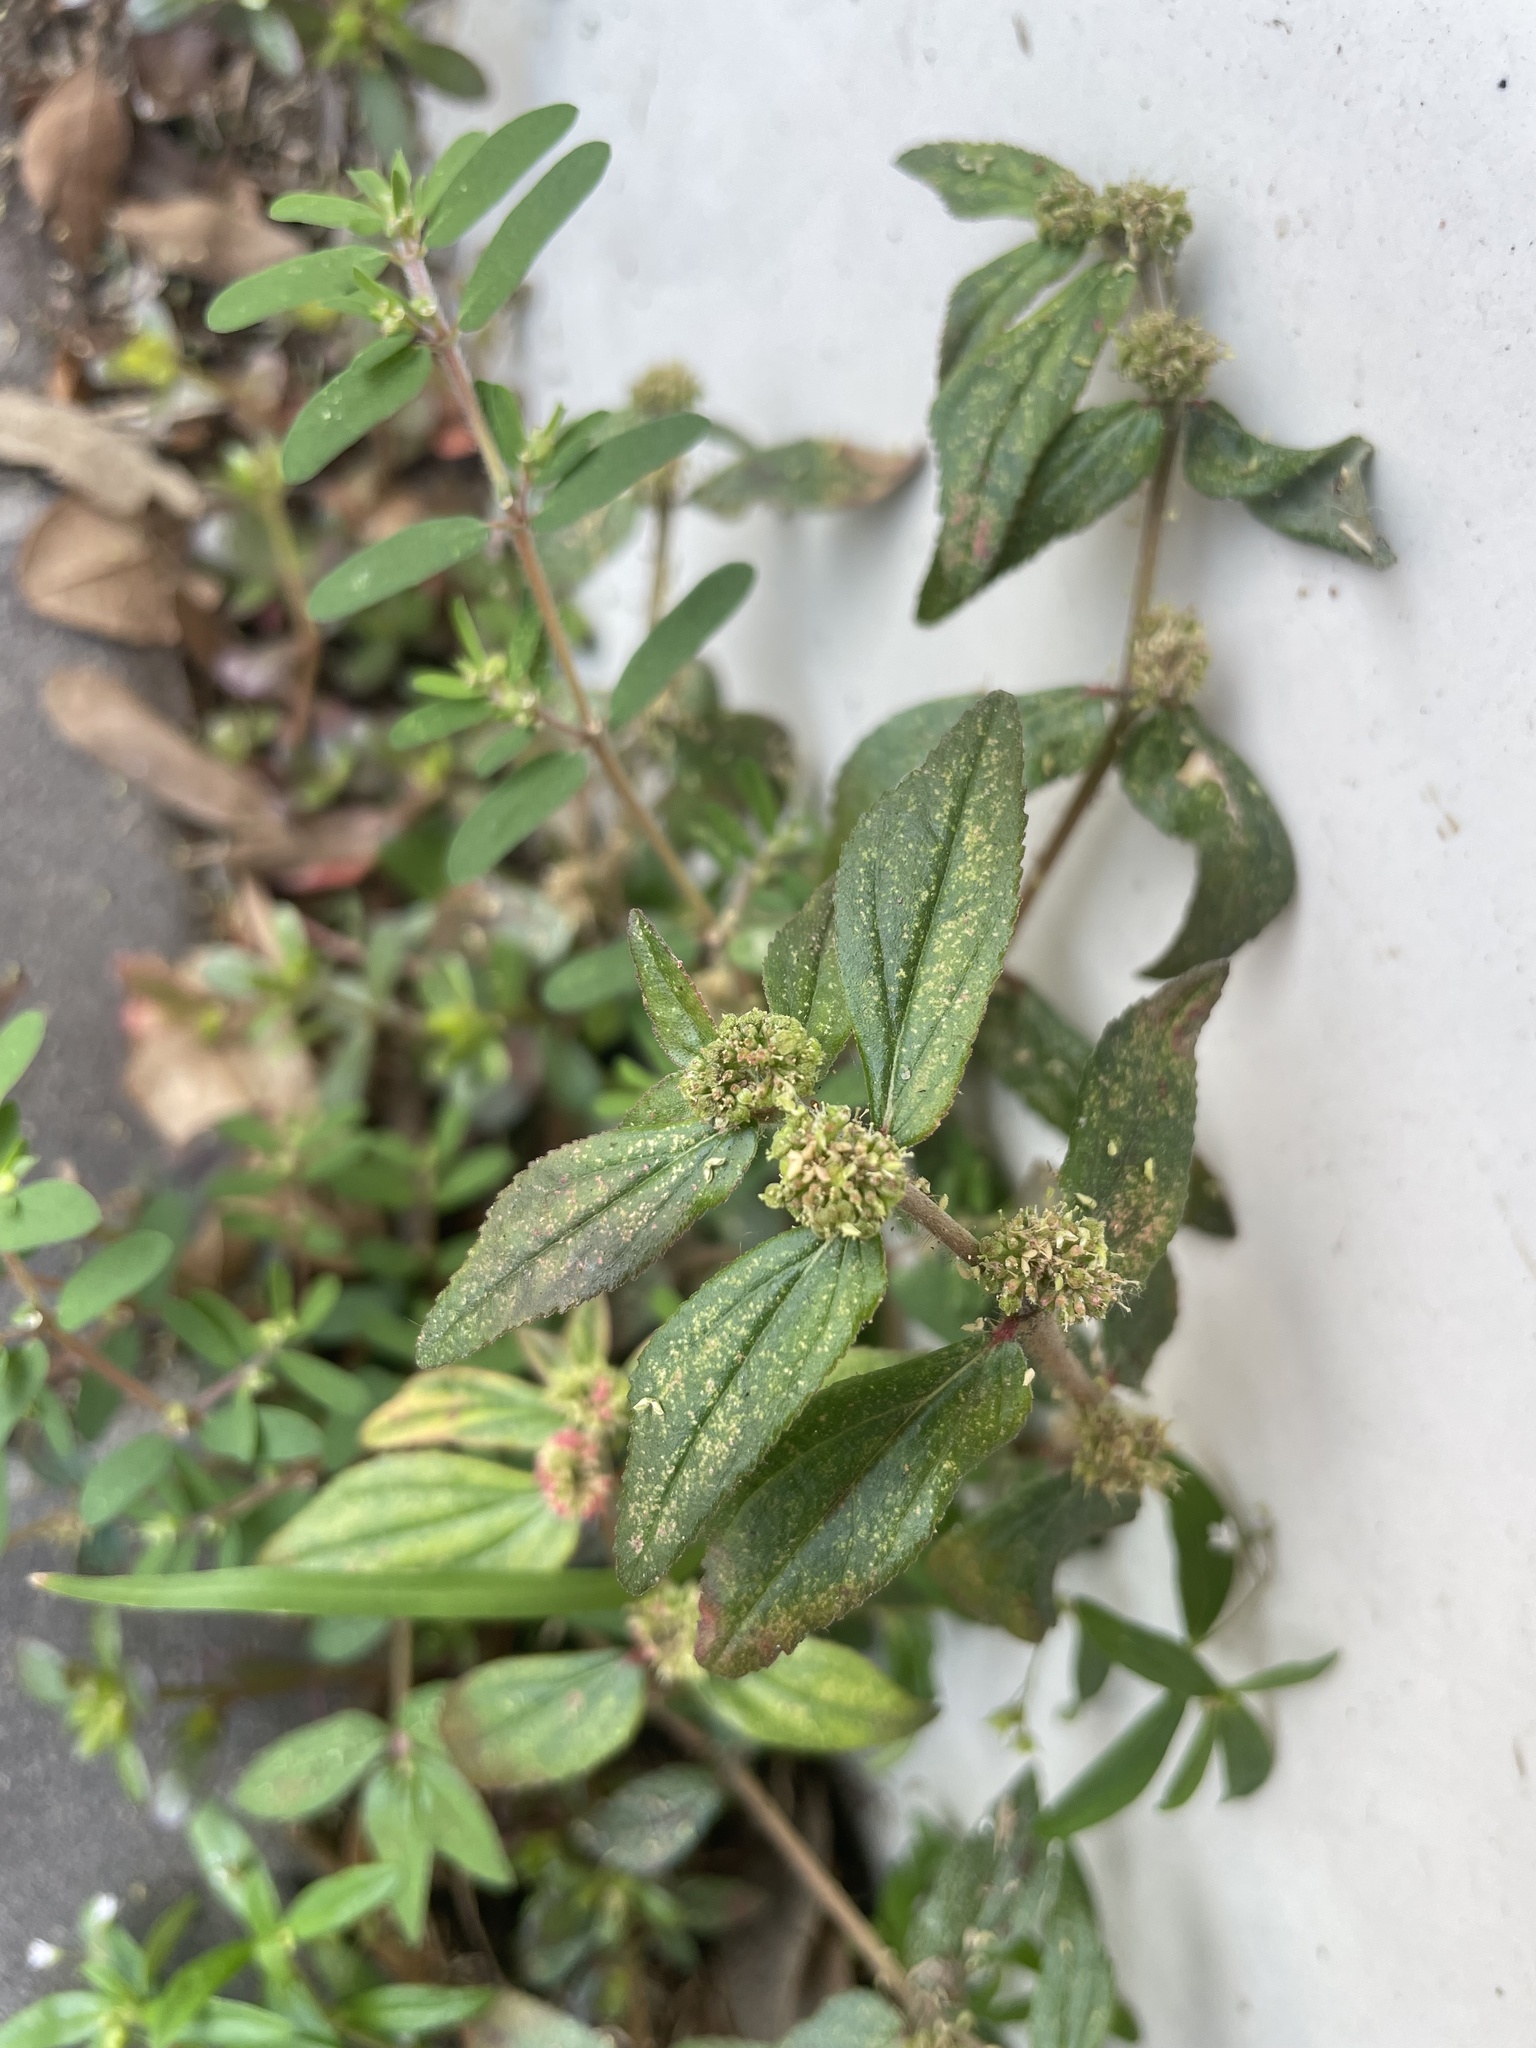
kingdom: Plantae
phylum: Tracheophyta
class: Magnoliopsida
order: Malpighiales
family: Euphorbiaceae
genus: Euphorbia
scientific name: Euphorbia hirta
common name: Pillpod sandmat
